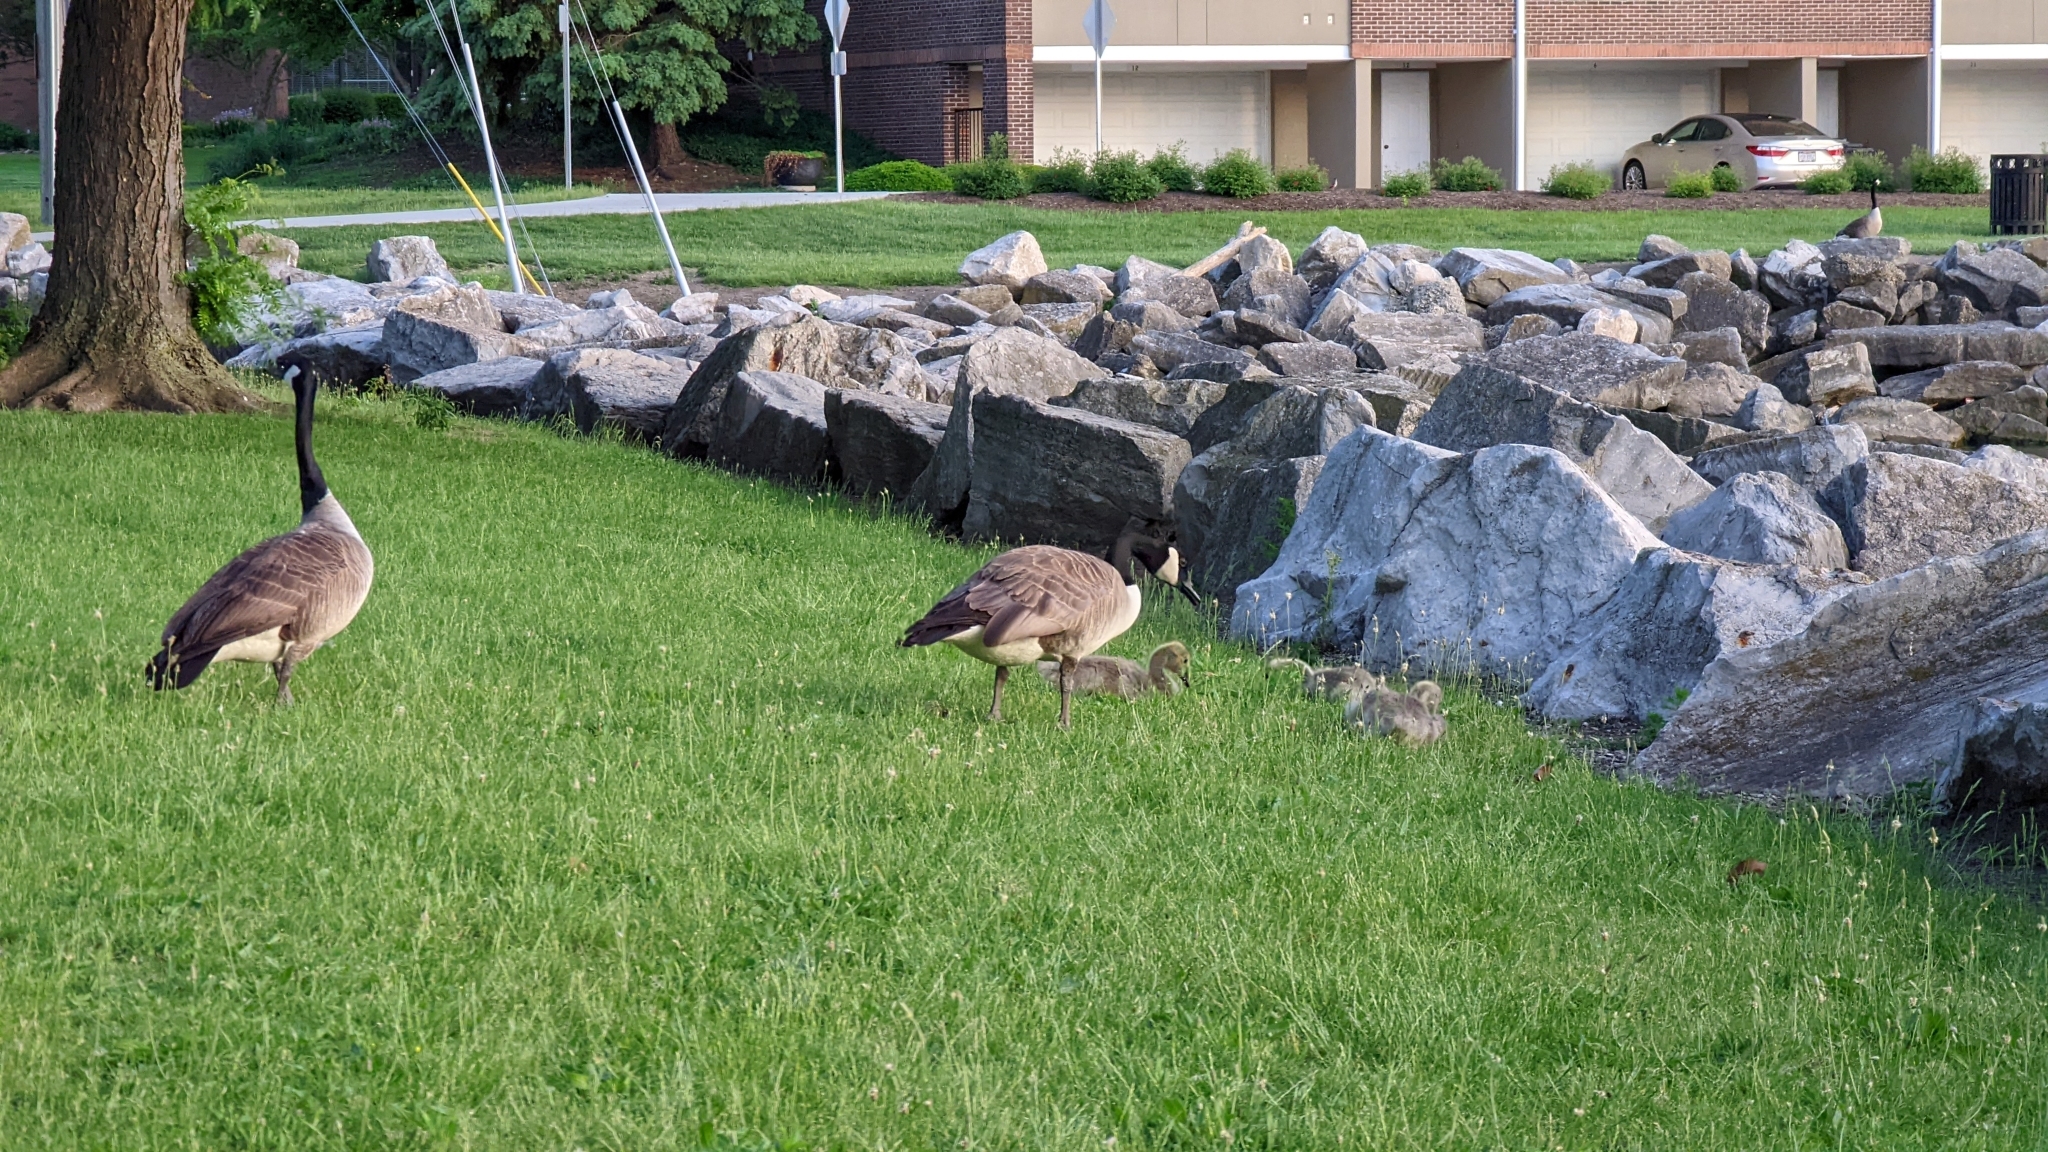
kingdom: Animalia
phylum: Chordata
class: Aves
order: Anseriformes
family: Anatidae
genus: Branta
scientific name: Branta canadensis
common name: Canada goose
